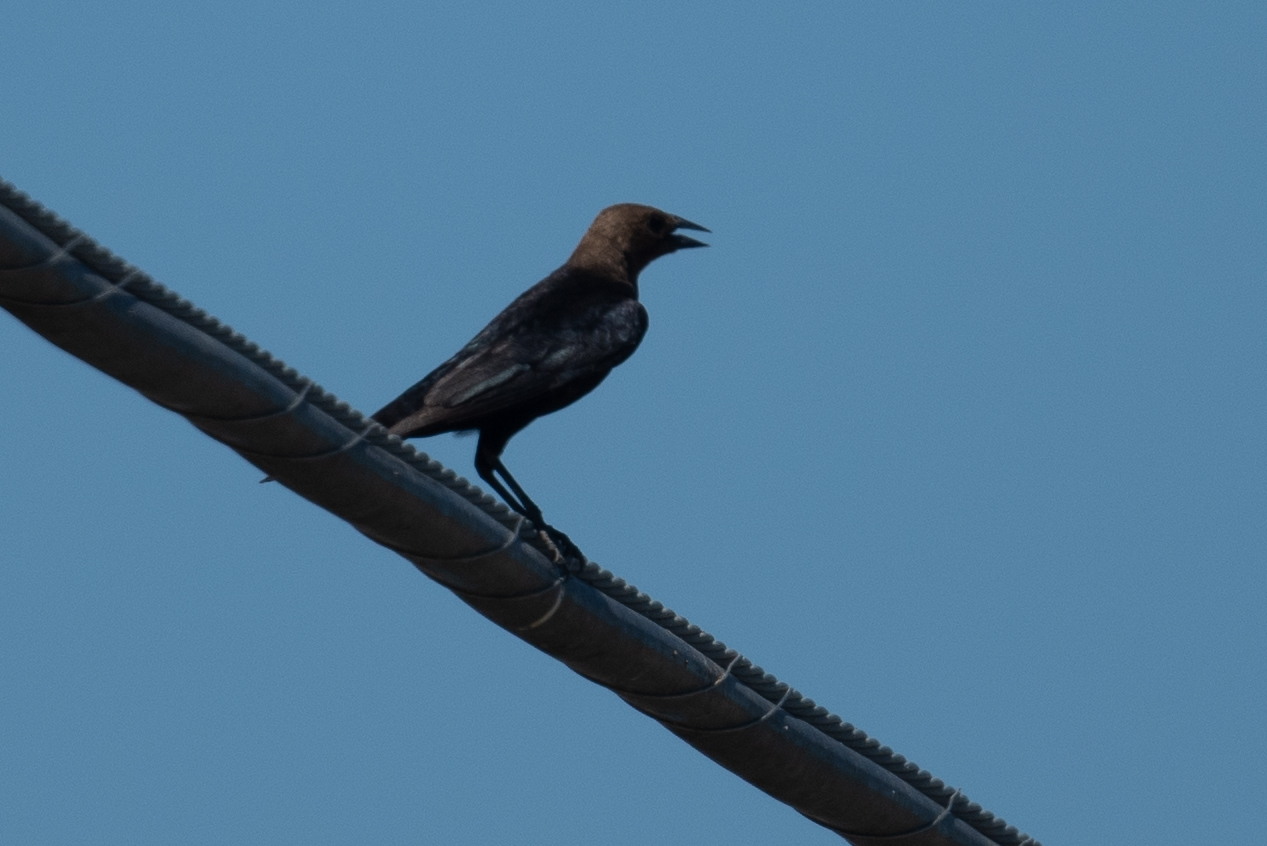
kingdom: Animalia
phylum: Chordata
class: Aves
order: Passeriformes
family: Icteridae
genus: Molothrus
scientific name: Molothrus ater
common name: Brown-headed cowbird
